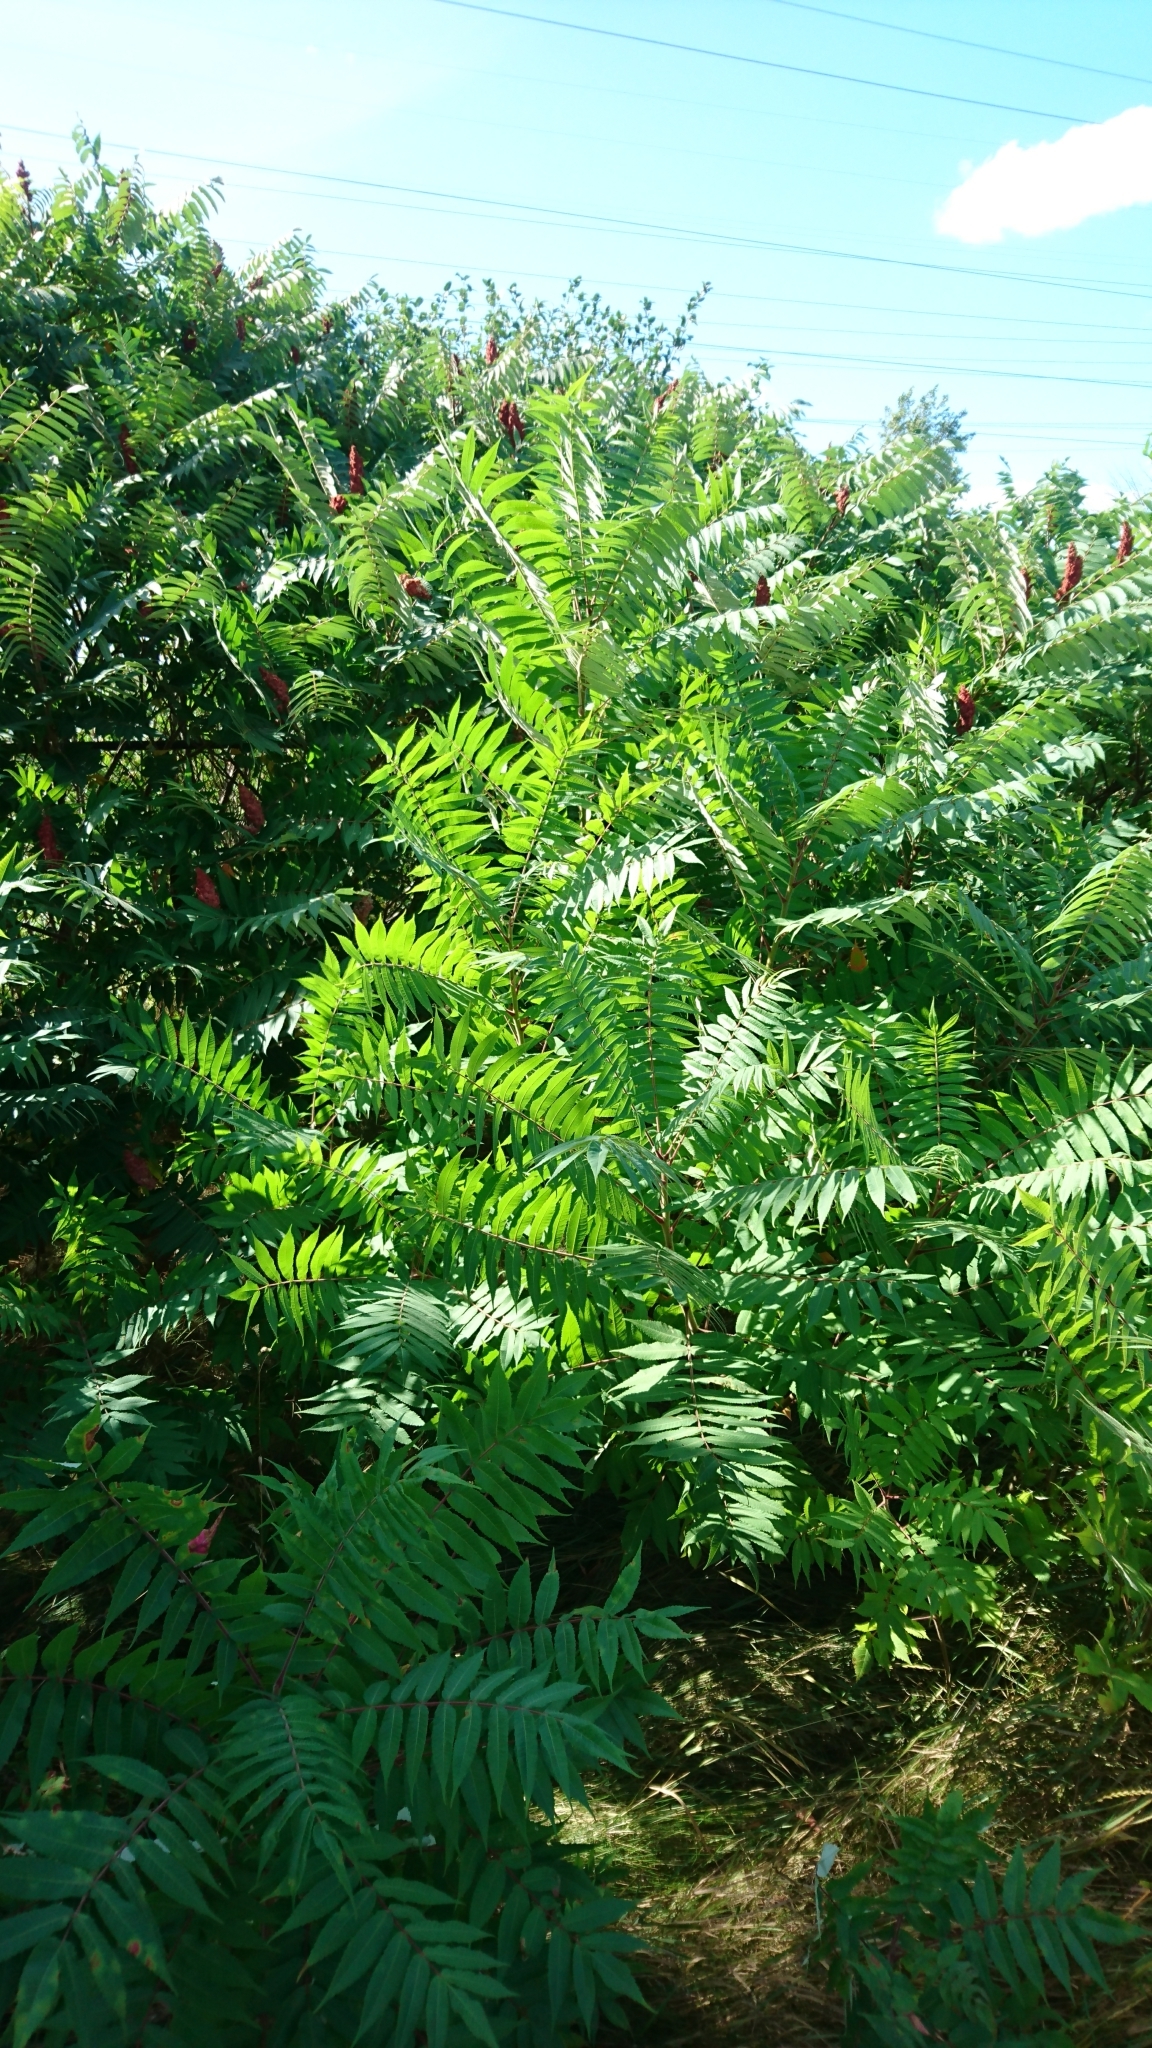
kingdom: Plantae
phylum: Tracheophyta
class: Magnoliopsida
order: Sapindales
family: Anacardiaceae
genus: Rhus
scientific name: Rhus typhina
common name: Staghorn sumac
